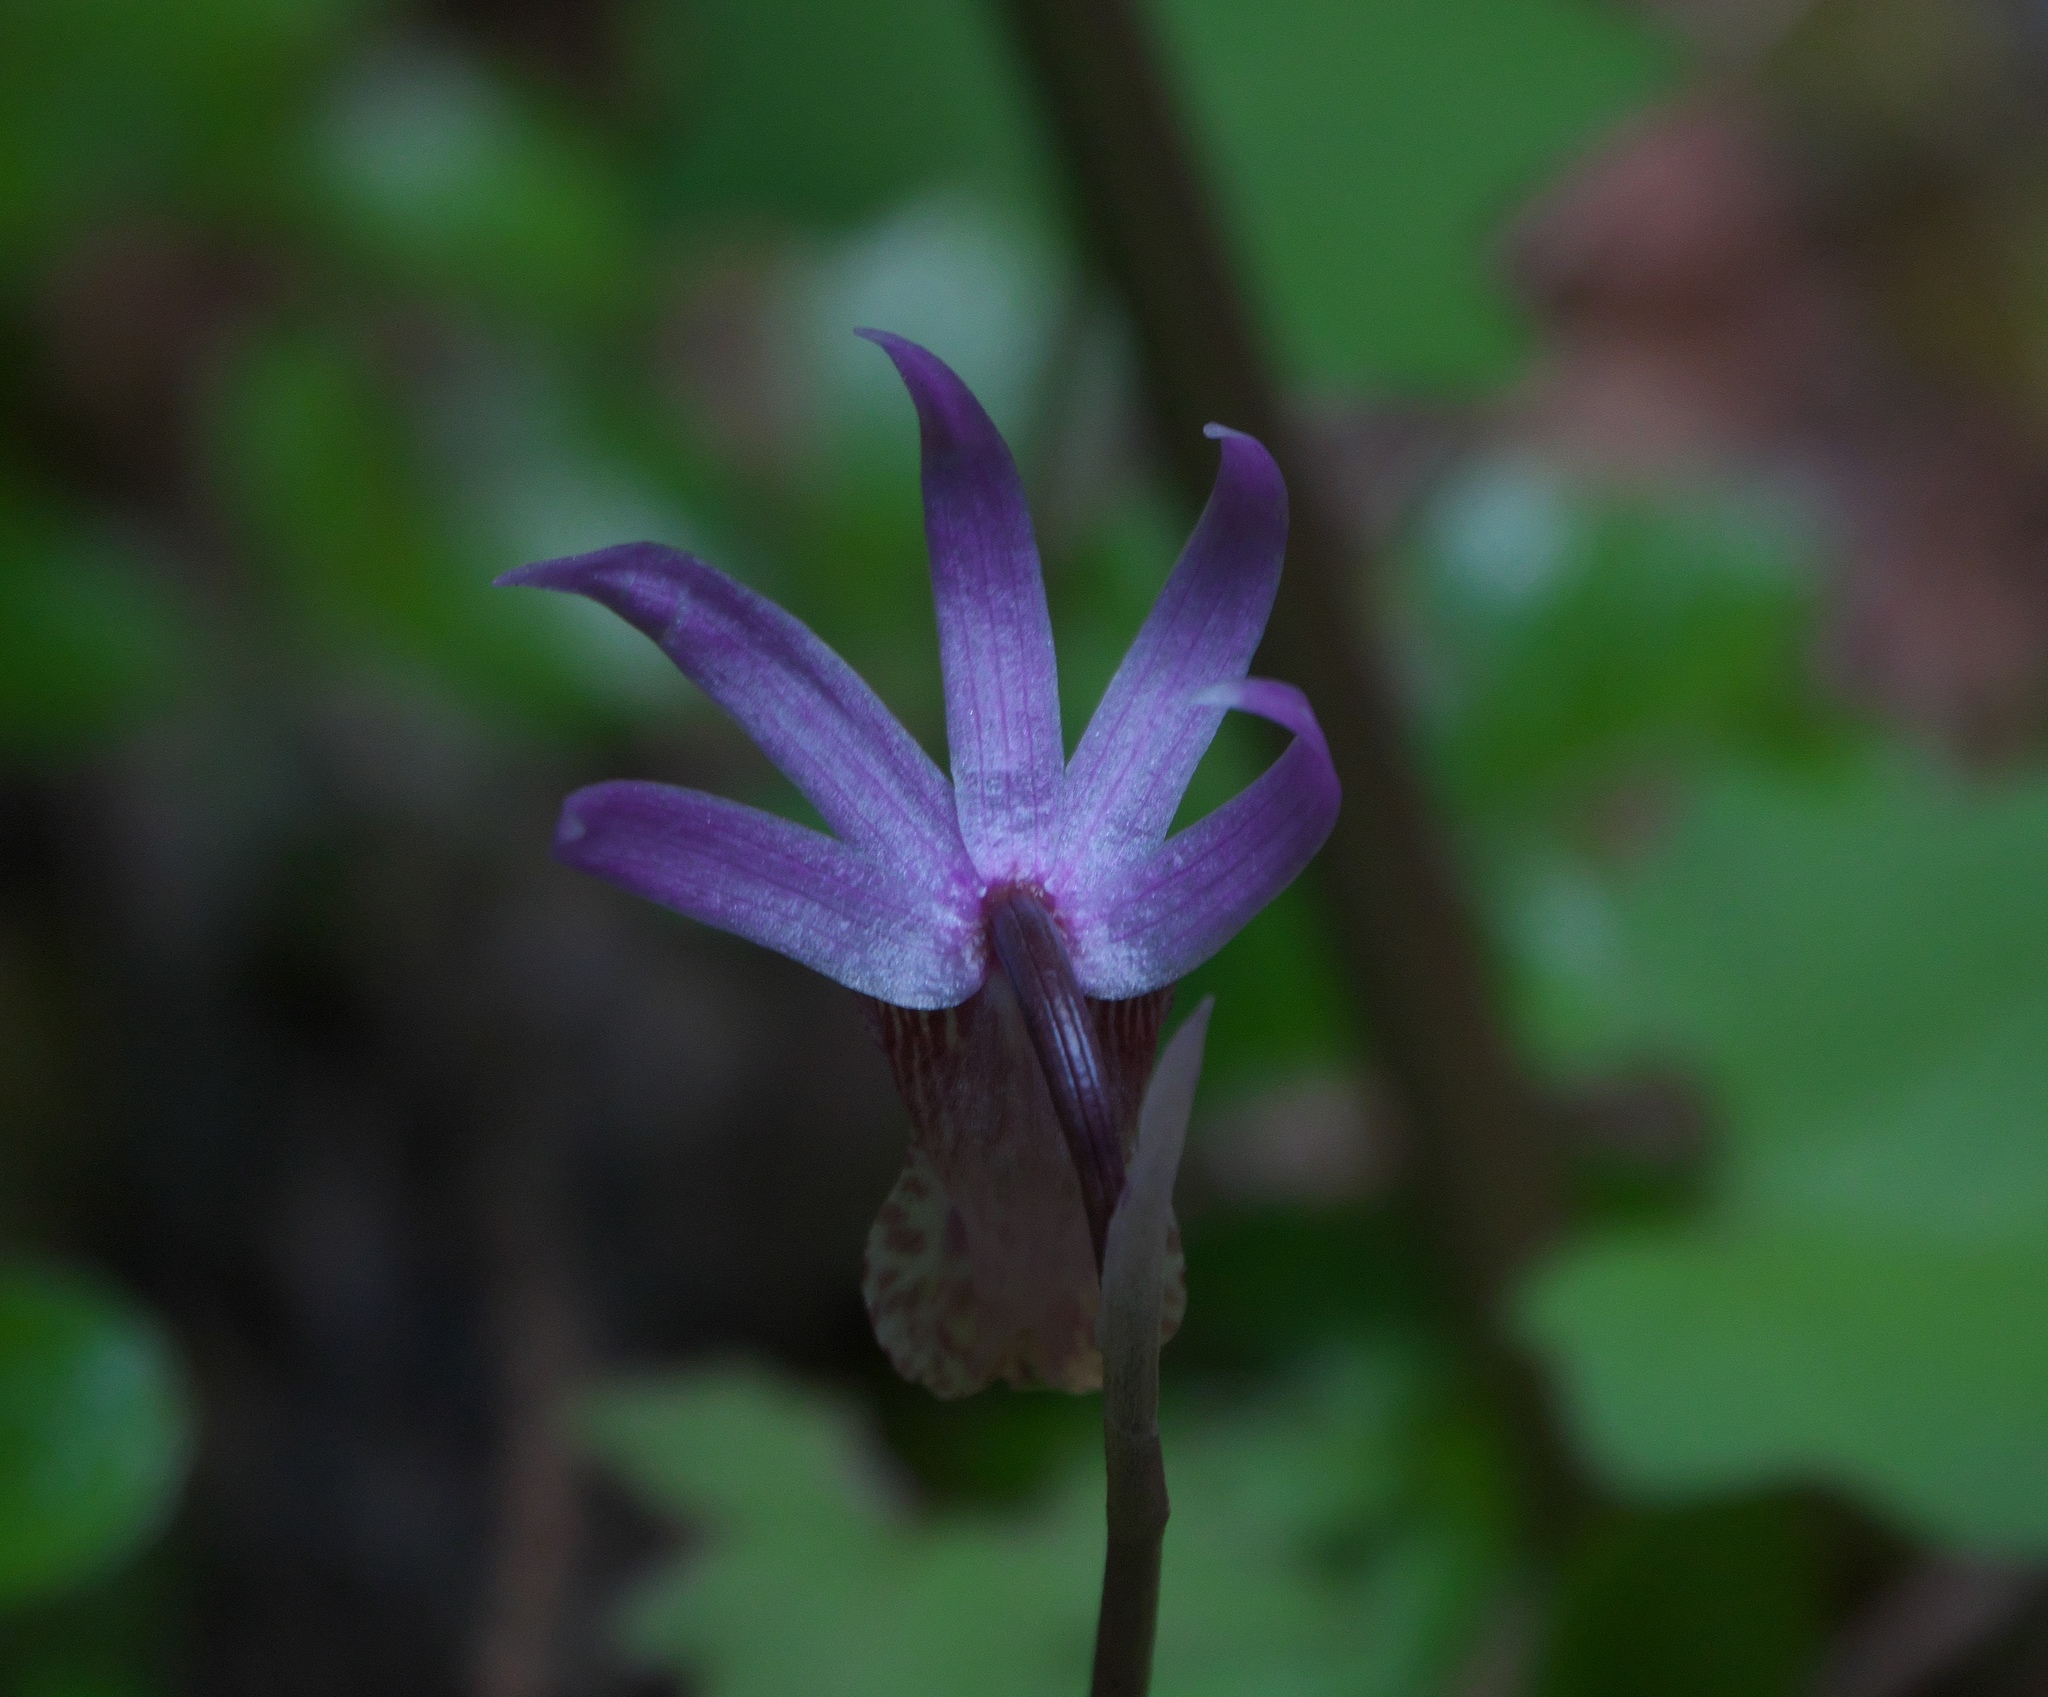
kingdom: Plantae
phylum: Tracheophyta
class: Liliopsida
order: Asparagales
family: Orchidaceae
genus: Calypso
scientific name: Calypso bulbosa
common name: Calypso
